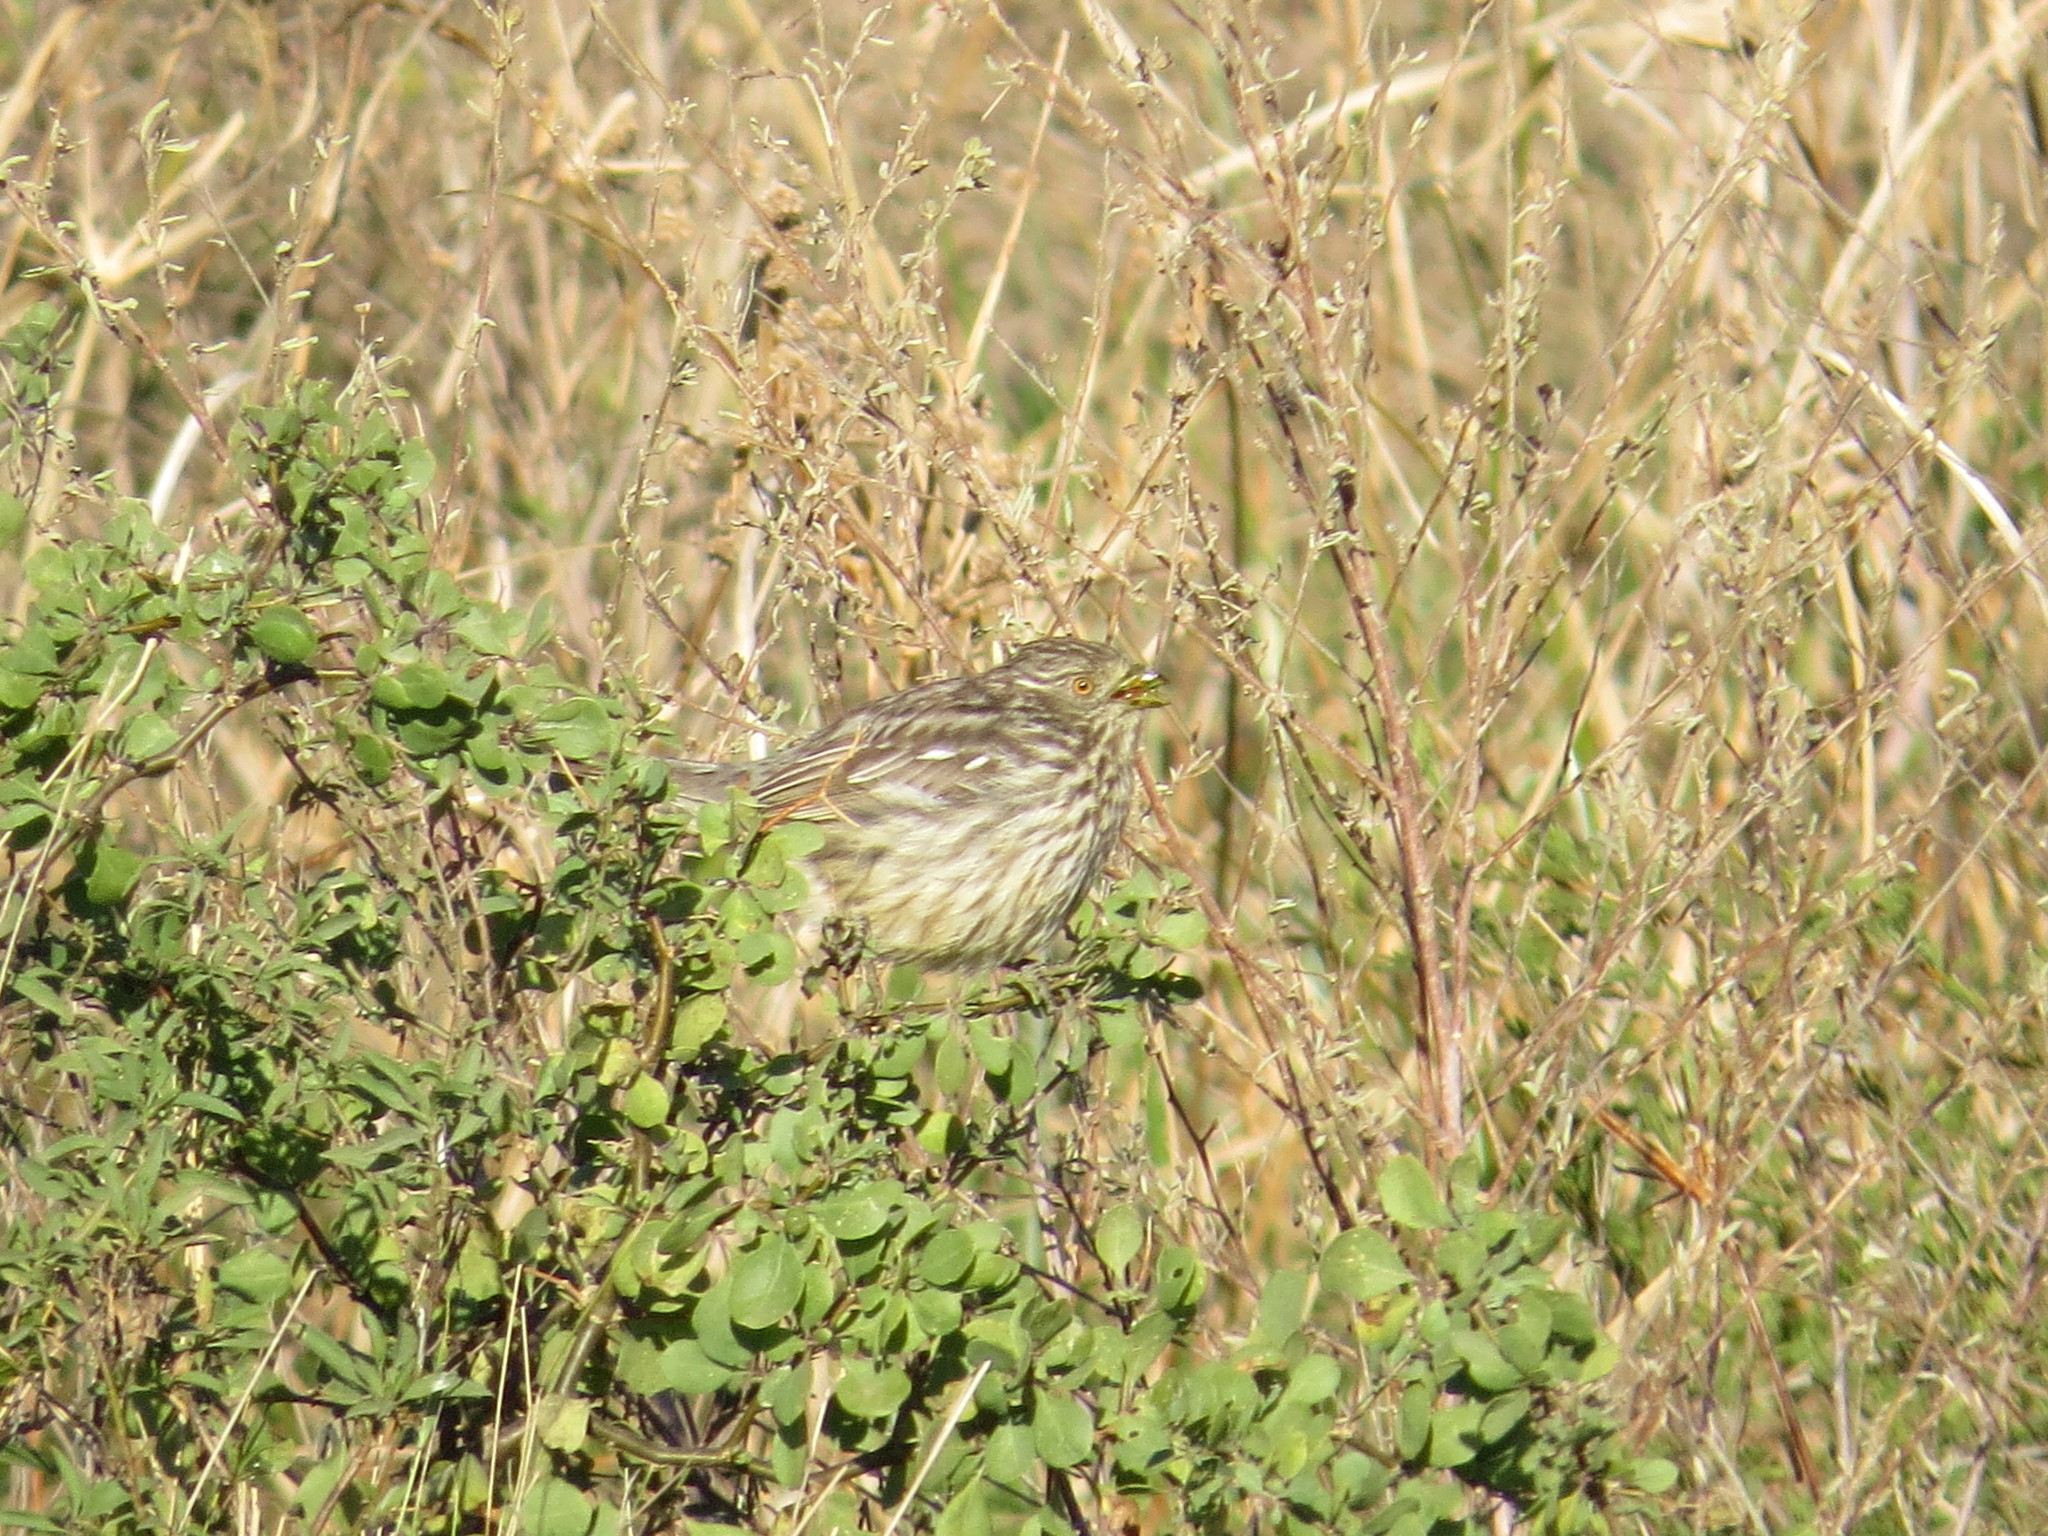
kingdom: Animalia
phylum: Chordata
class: Aves
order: Passeriformes
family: Cotingidae
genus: Phytotoma
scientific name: Phytotoma rutila
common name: White-tipped plantcutter
